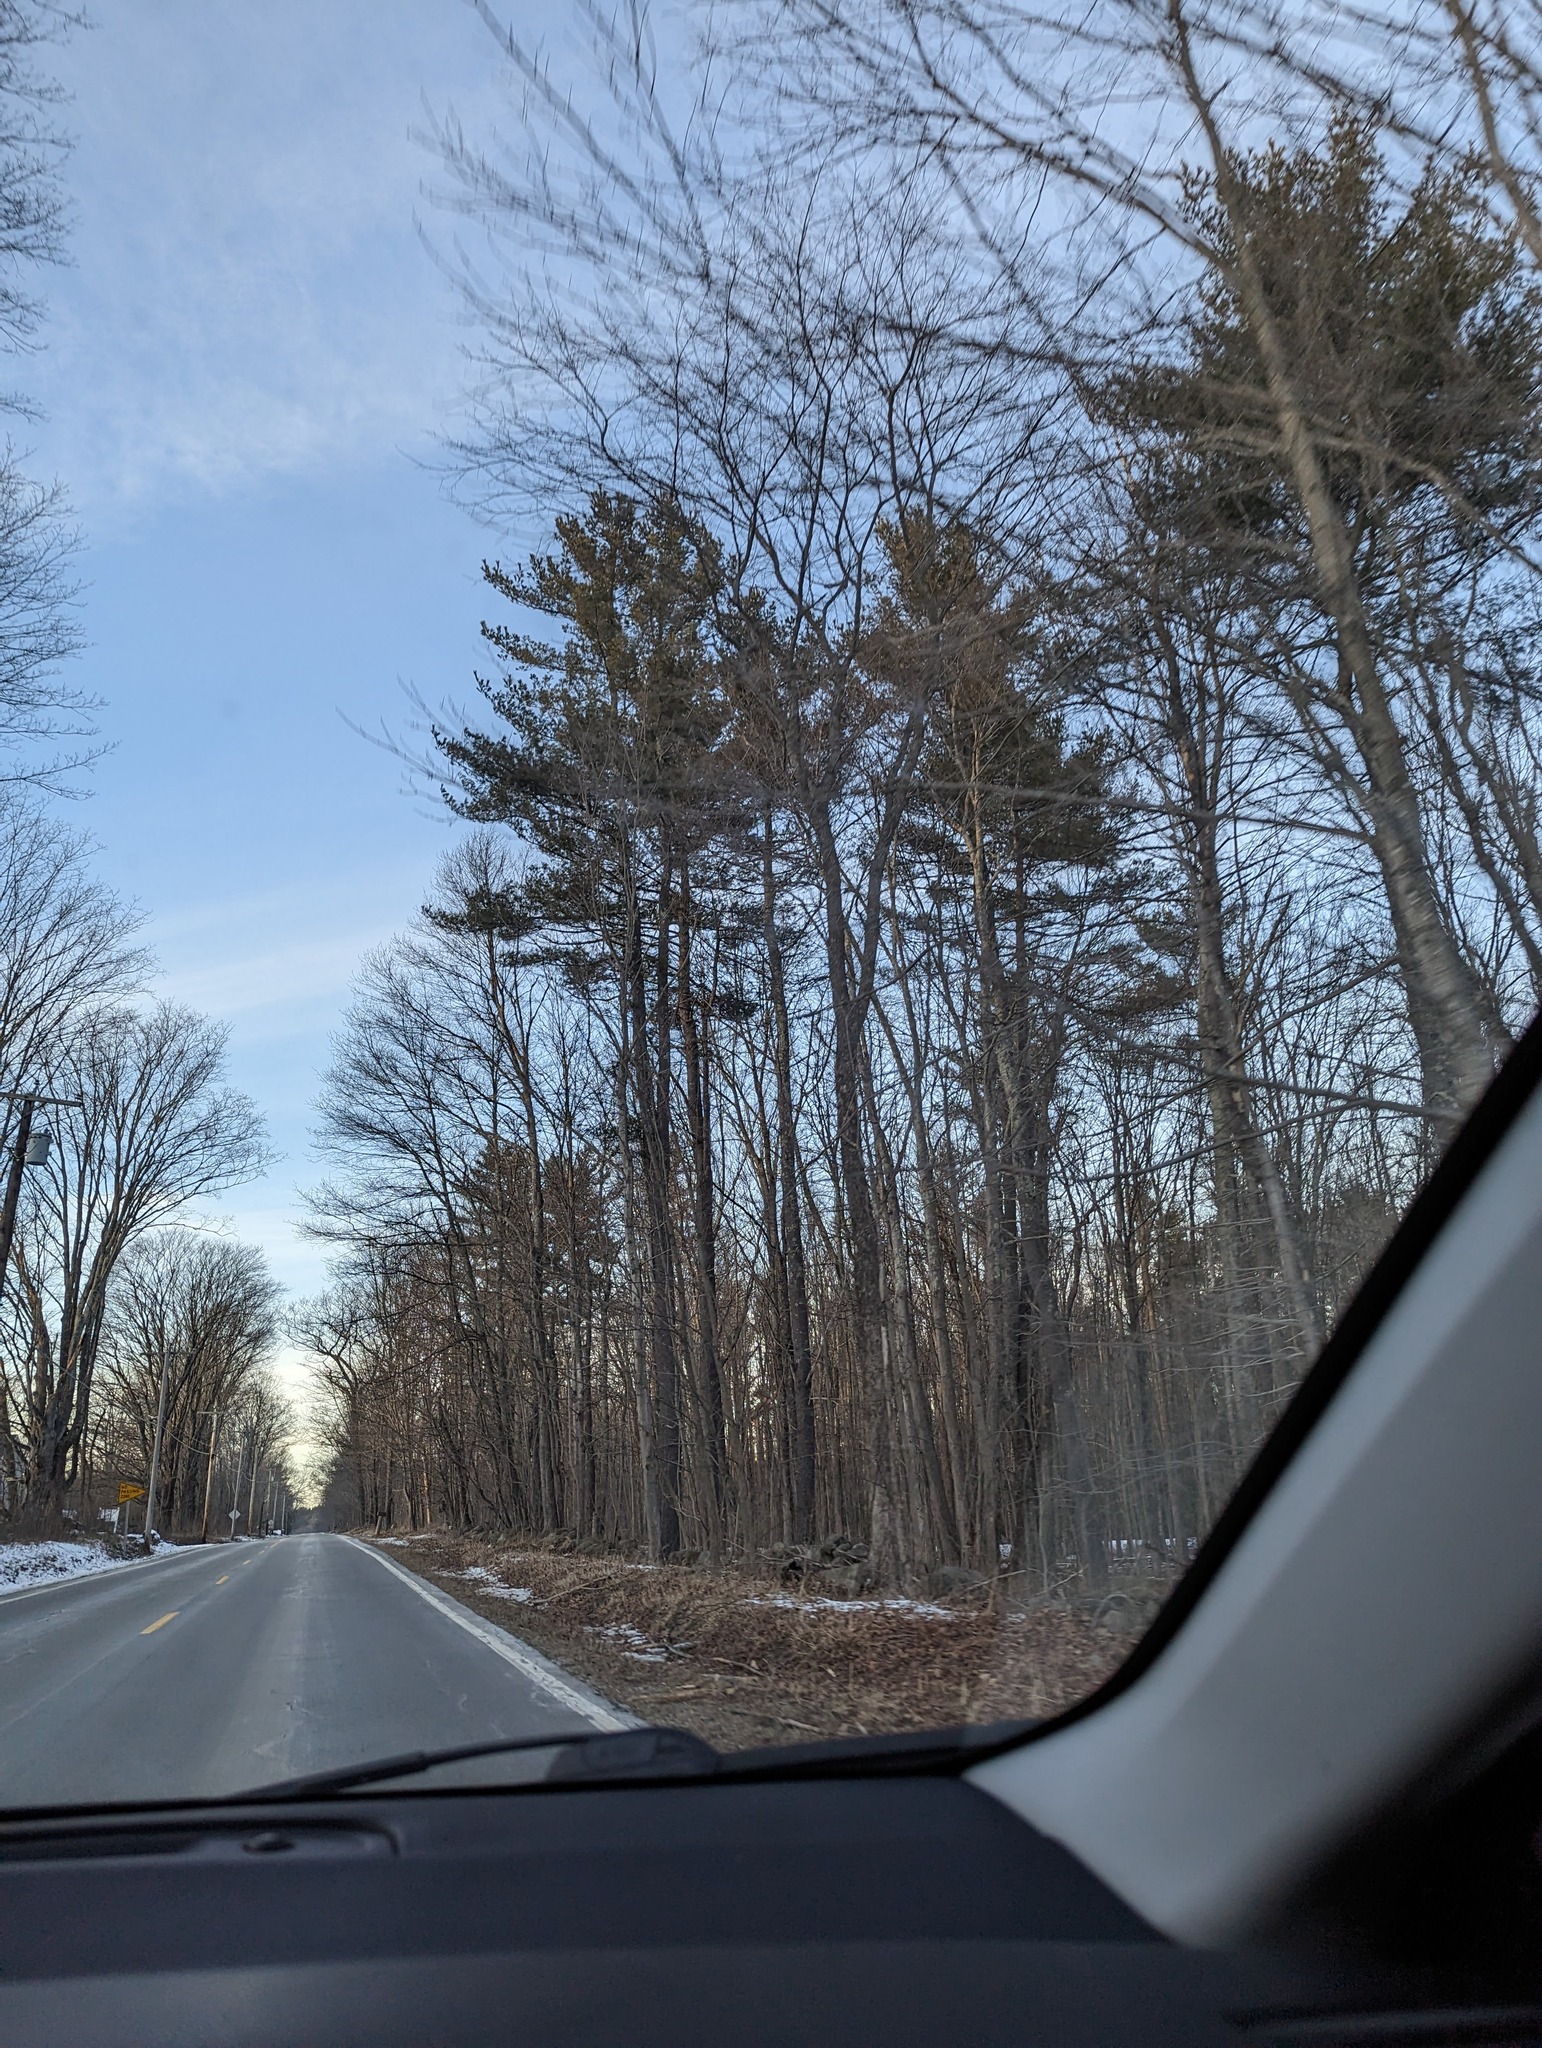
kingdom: Plantae
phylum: Tracheophyta
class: Pinopsida
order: Pinales
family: Pinaceae
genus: Pinus
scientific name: Pinus strobus
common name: Weymouth pine
